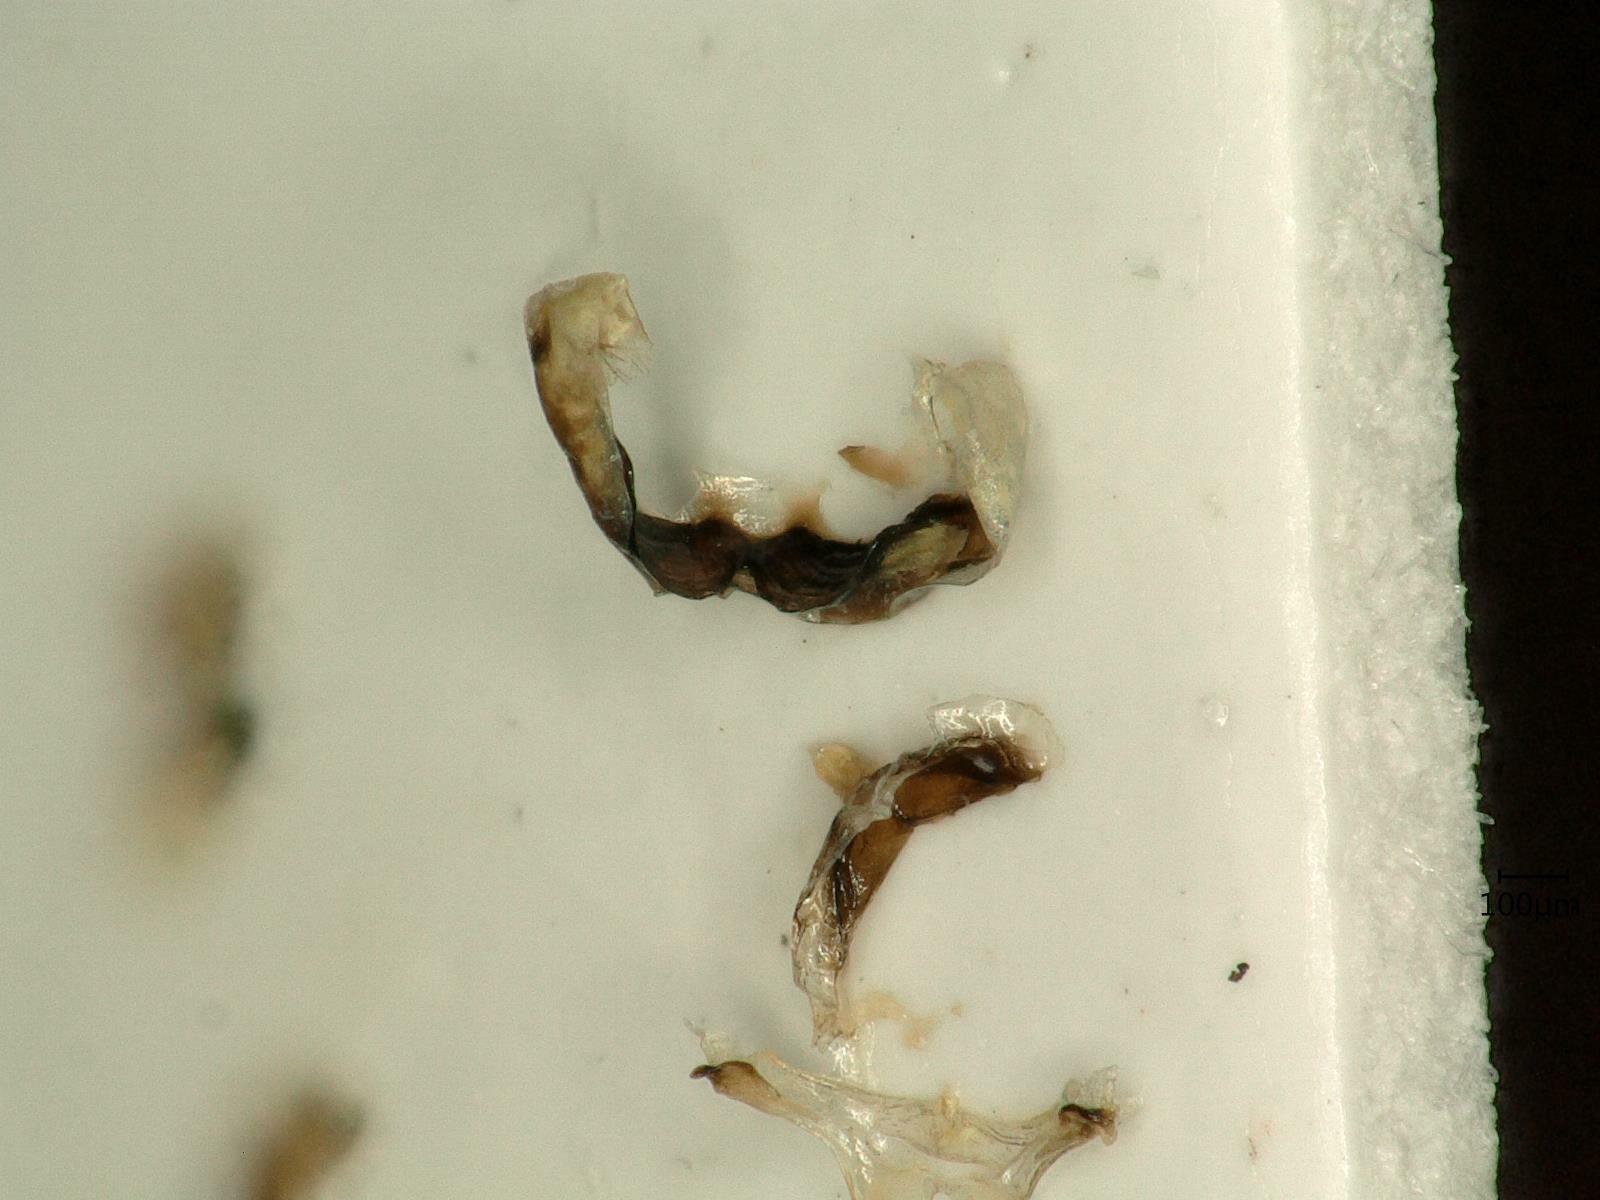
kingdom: Animalia
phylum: Arthropoda
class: Insecta
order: Hemiptera
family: Cicadellidae
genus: Kybos
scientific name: Kybos strobli
